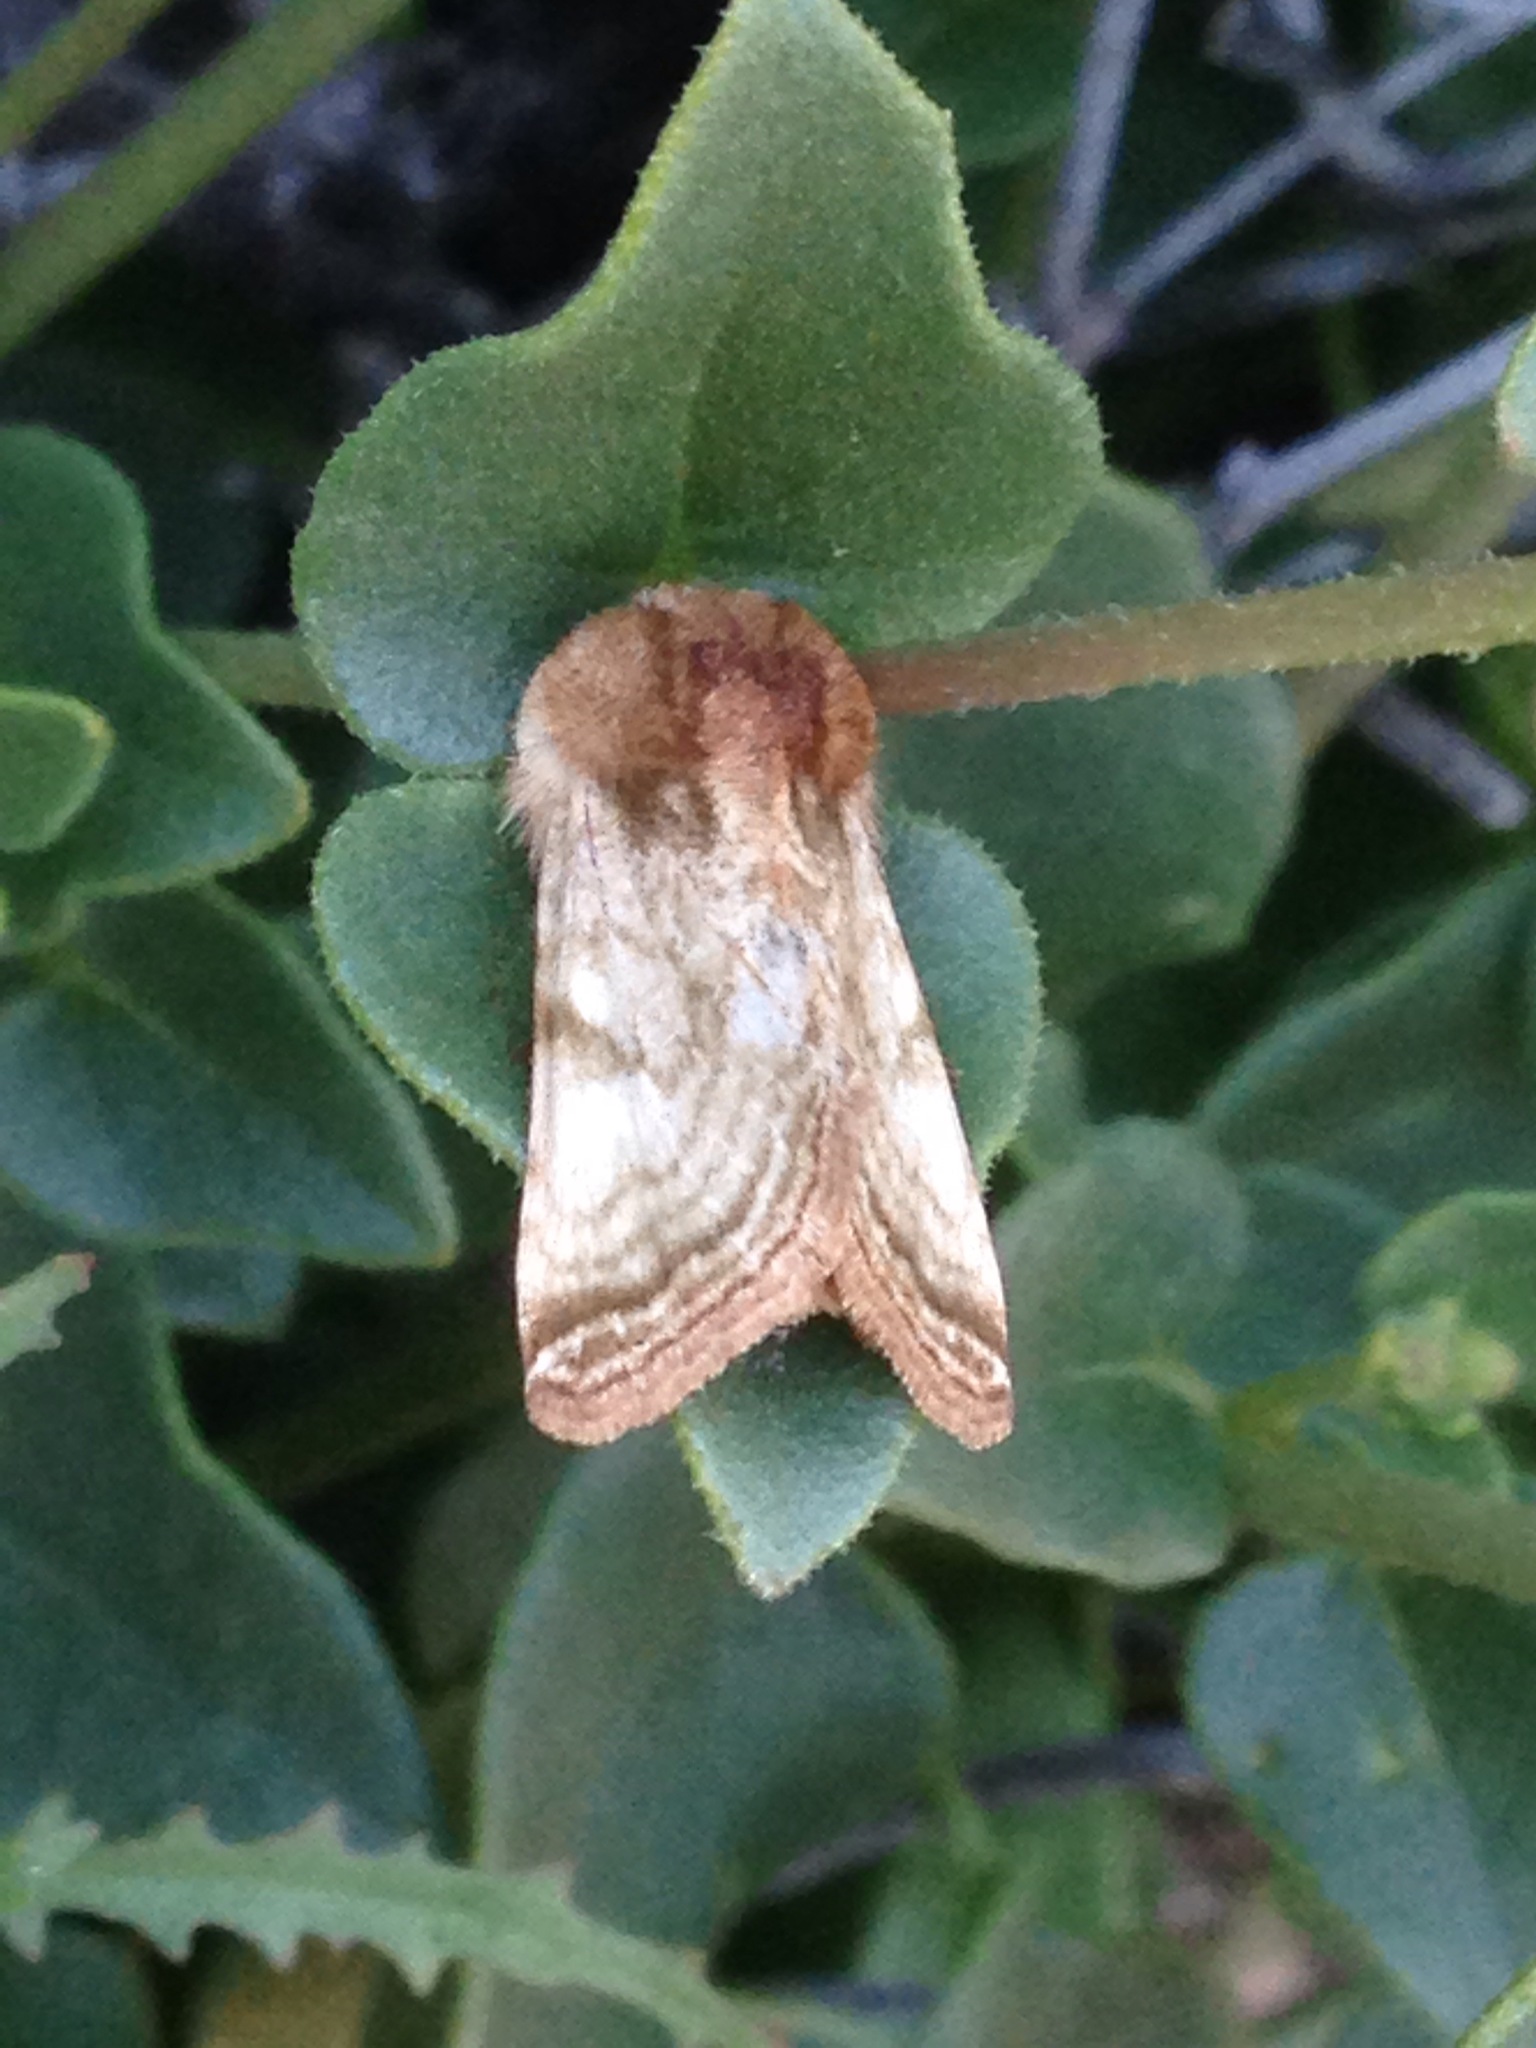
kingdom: Animalia
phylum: Arthropoda
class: Insecta
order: Lepidoptera
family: Noctuidae
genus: Nocloa
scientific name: Nocloa rivulosa
